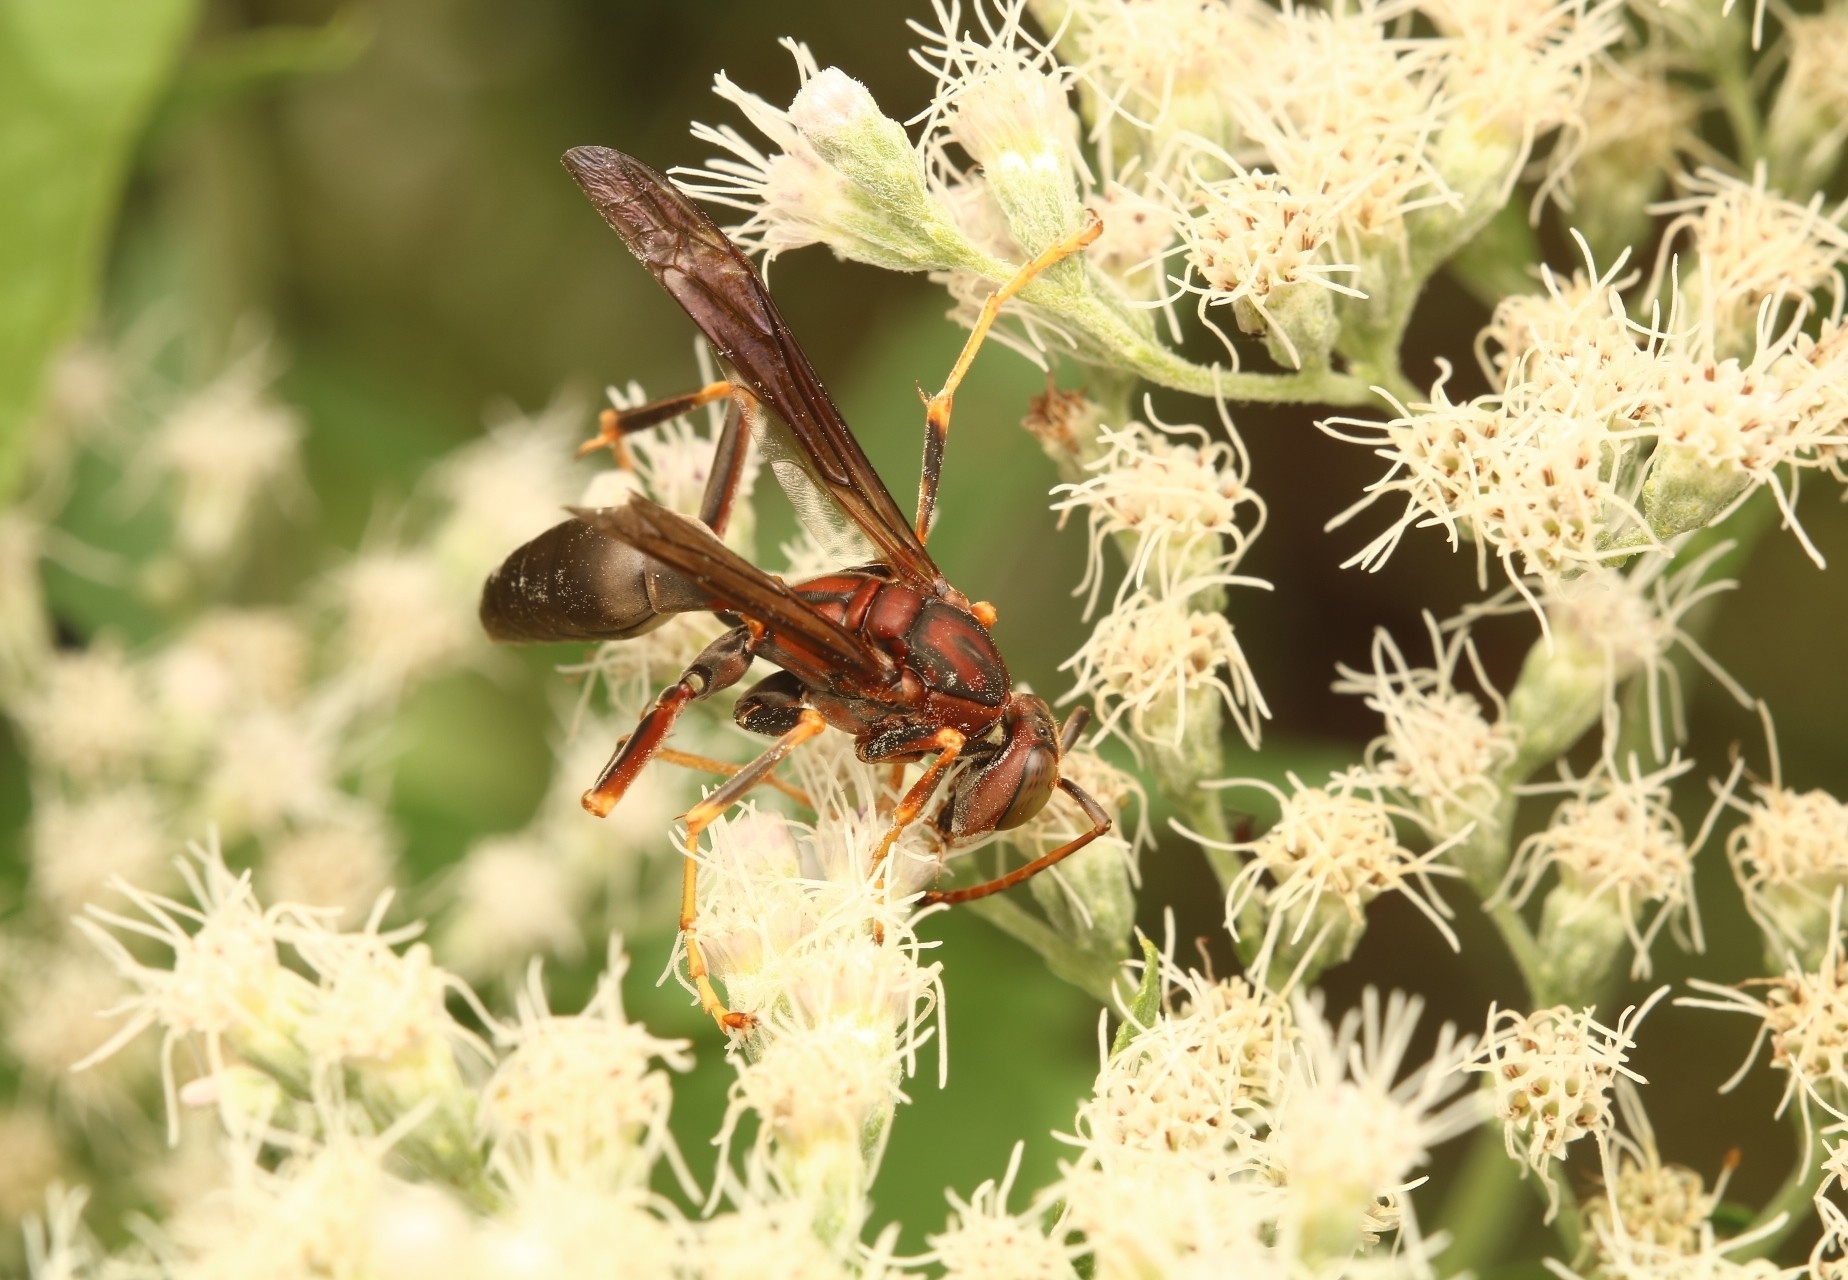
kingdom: Animalia
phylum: Arthropoda
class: Insecta
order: Hymenoptera
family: Eumenidae
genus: Polistes
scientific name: Polistes metricus
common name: Metric paper wasp
